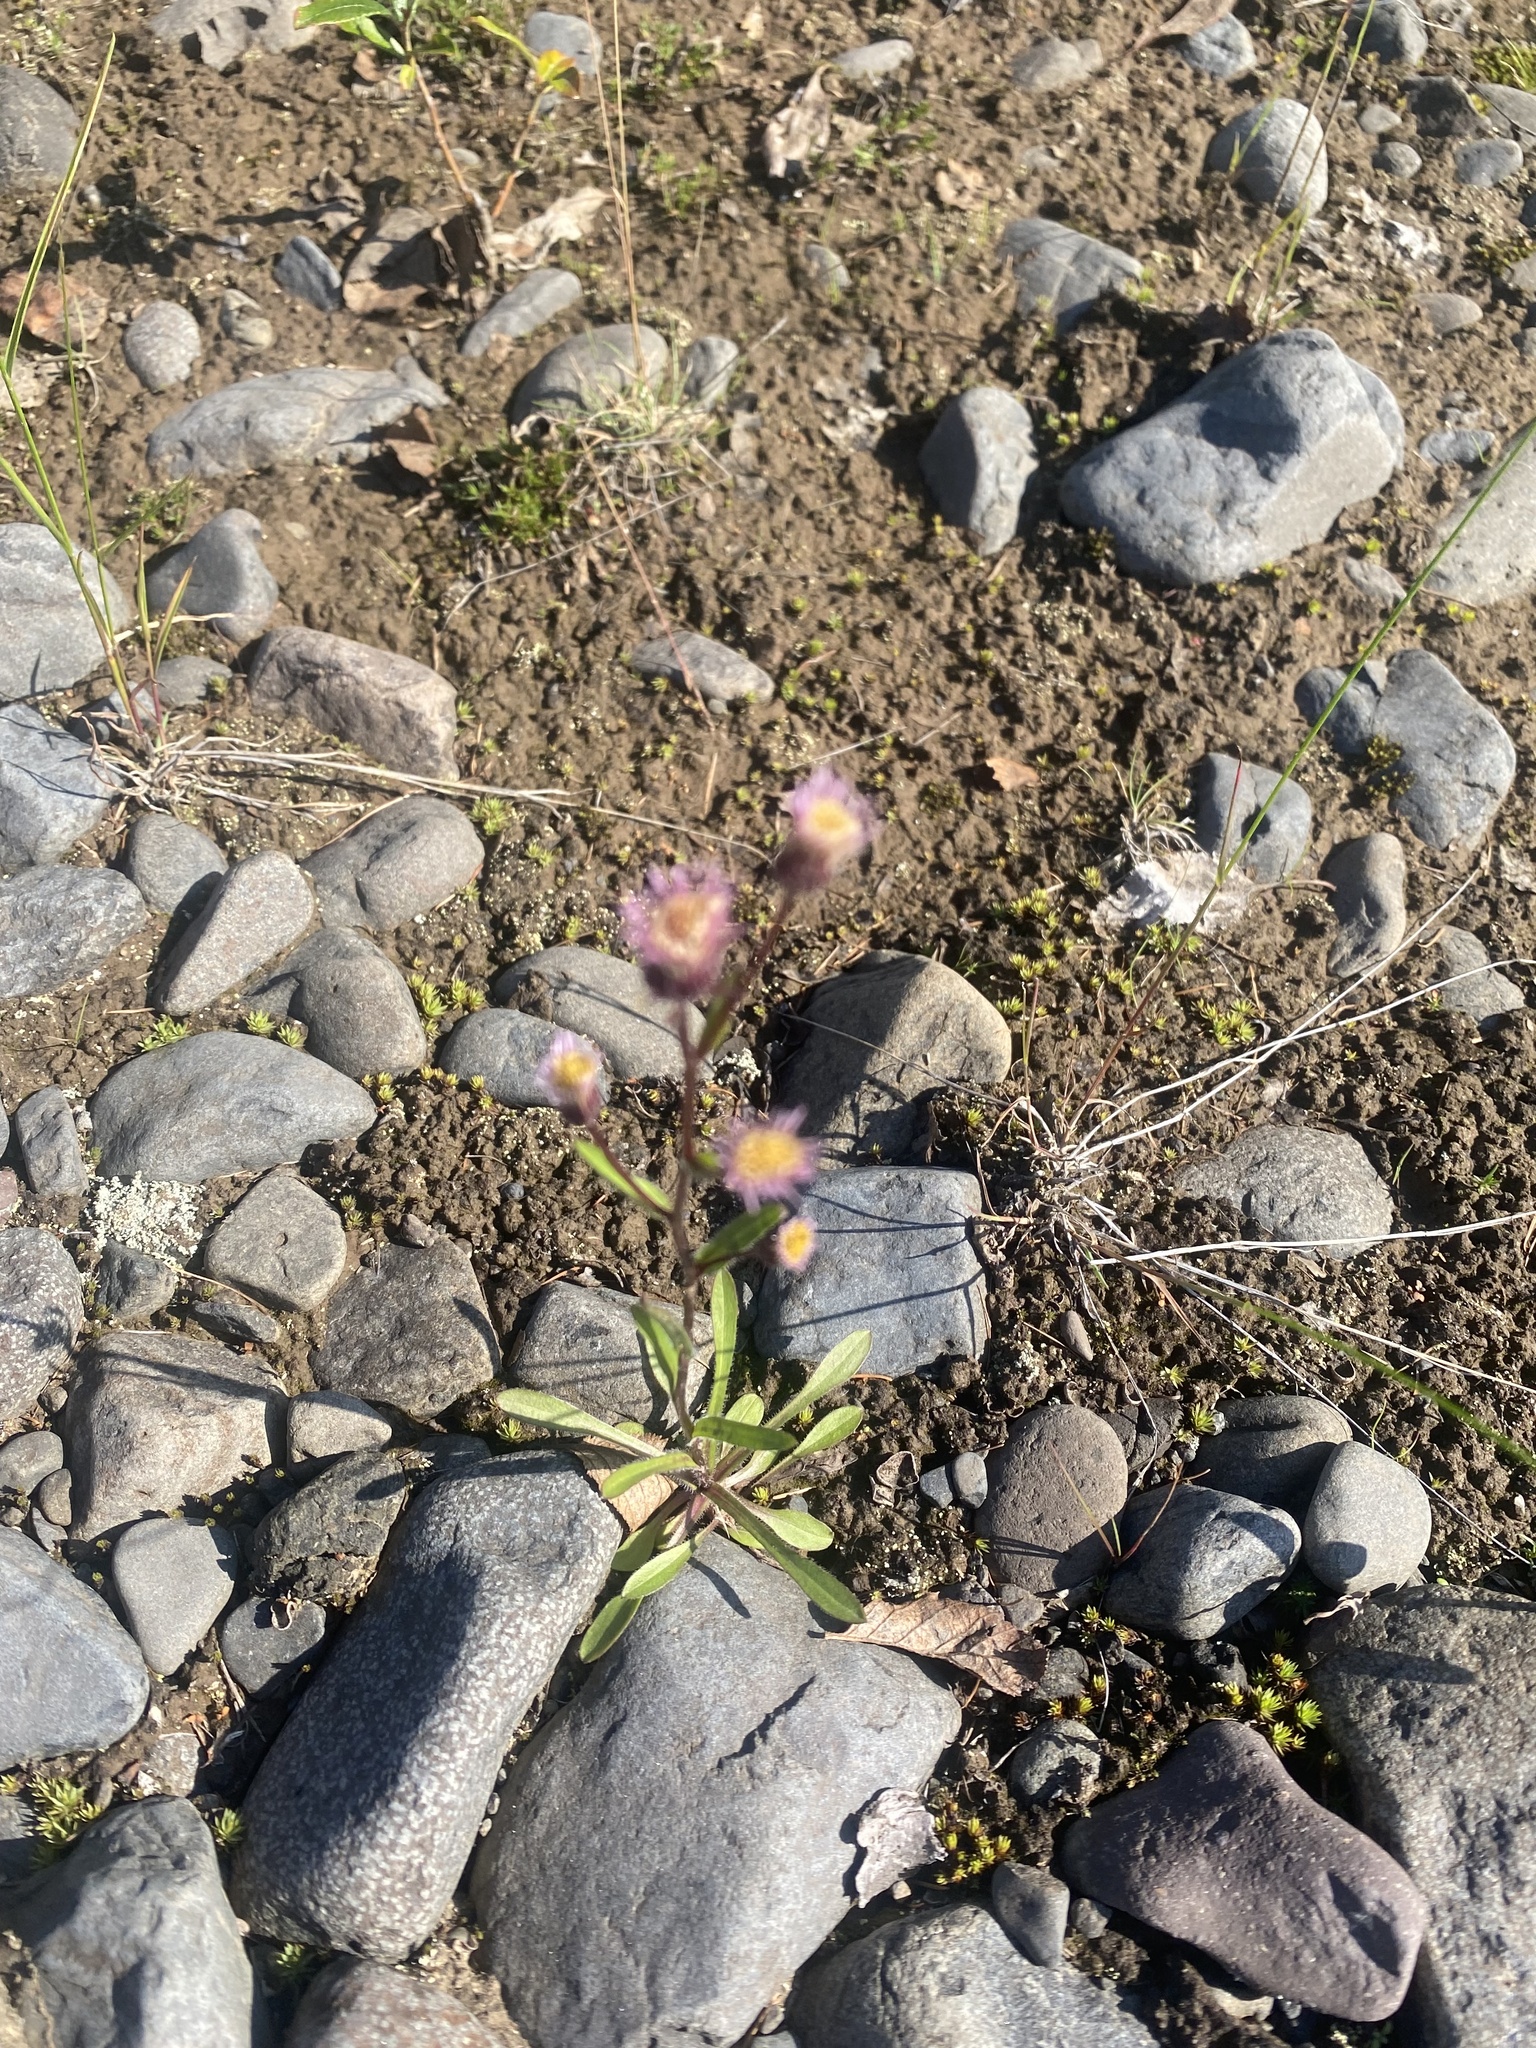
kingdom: Plantae
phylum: Tracheophyta
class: Magnoliopsida
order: Asterales
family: Asteraceae
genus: Erigeron
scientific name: Erigeron acris
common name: Blue fleabane
